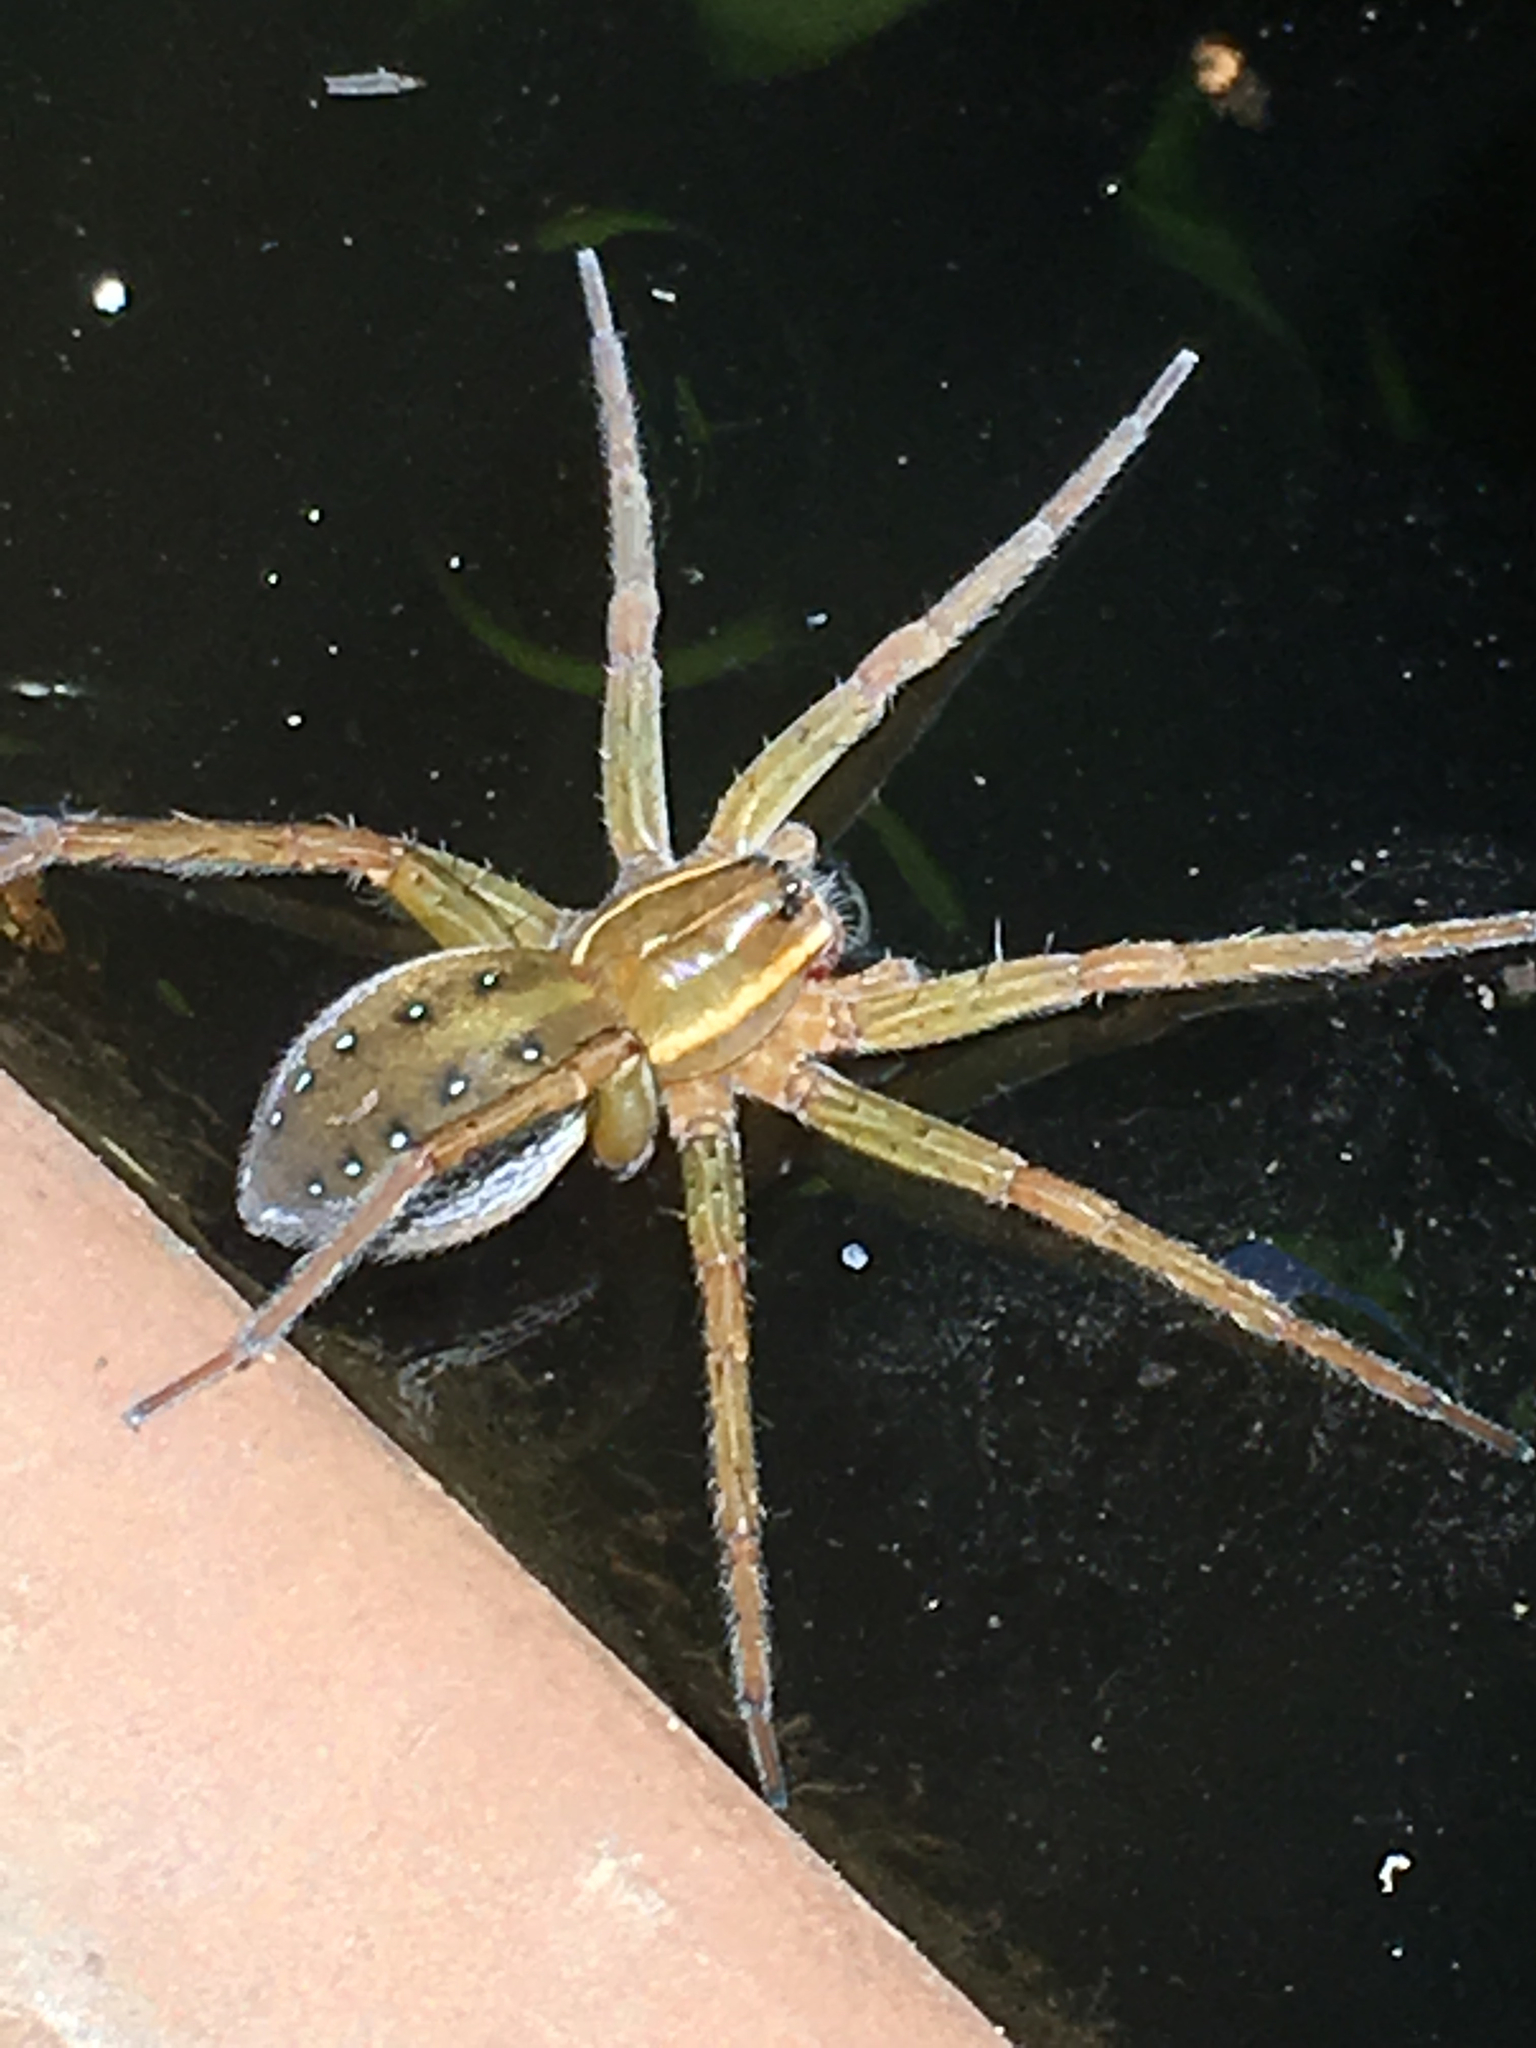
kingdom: Animalia
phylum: Arthropoda
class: Arachnida
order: Araneae
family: Pisauridae
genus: Dolomedes
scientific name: Dolomedes triton
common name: Six-spotted fishing spider
